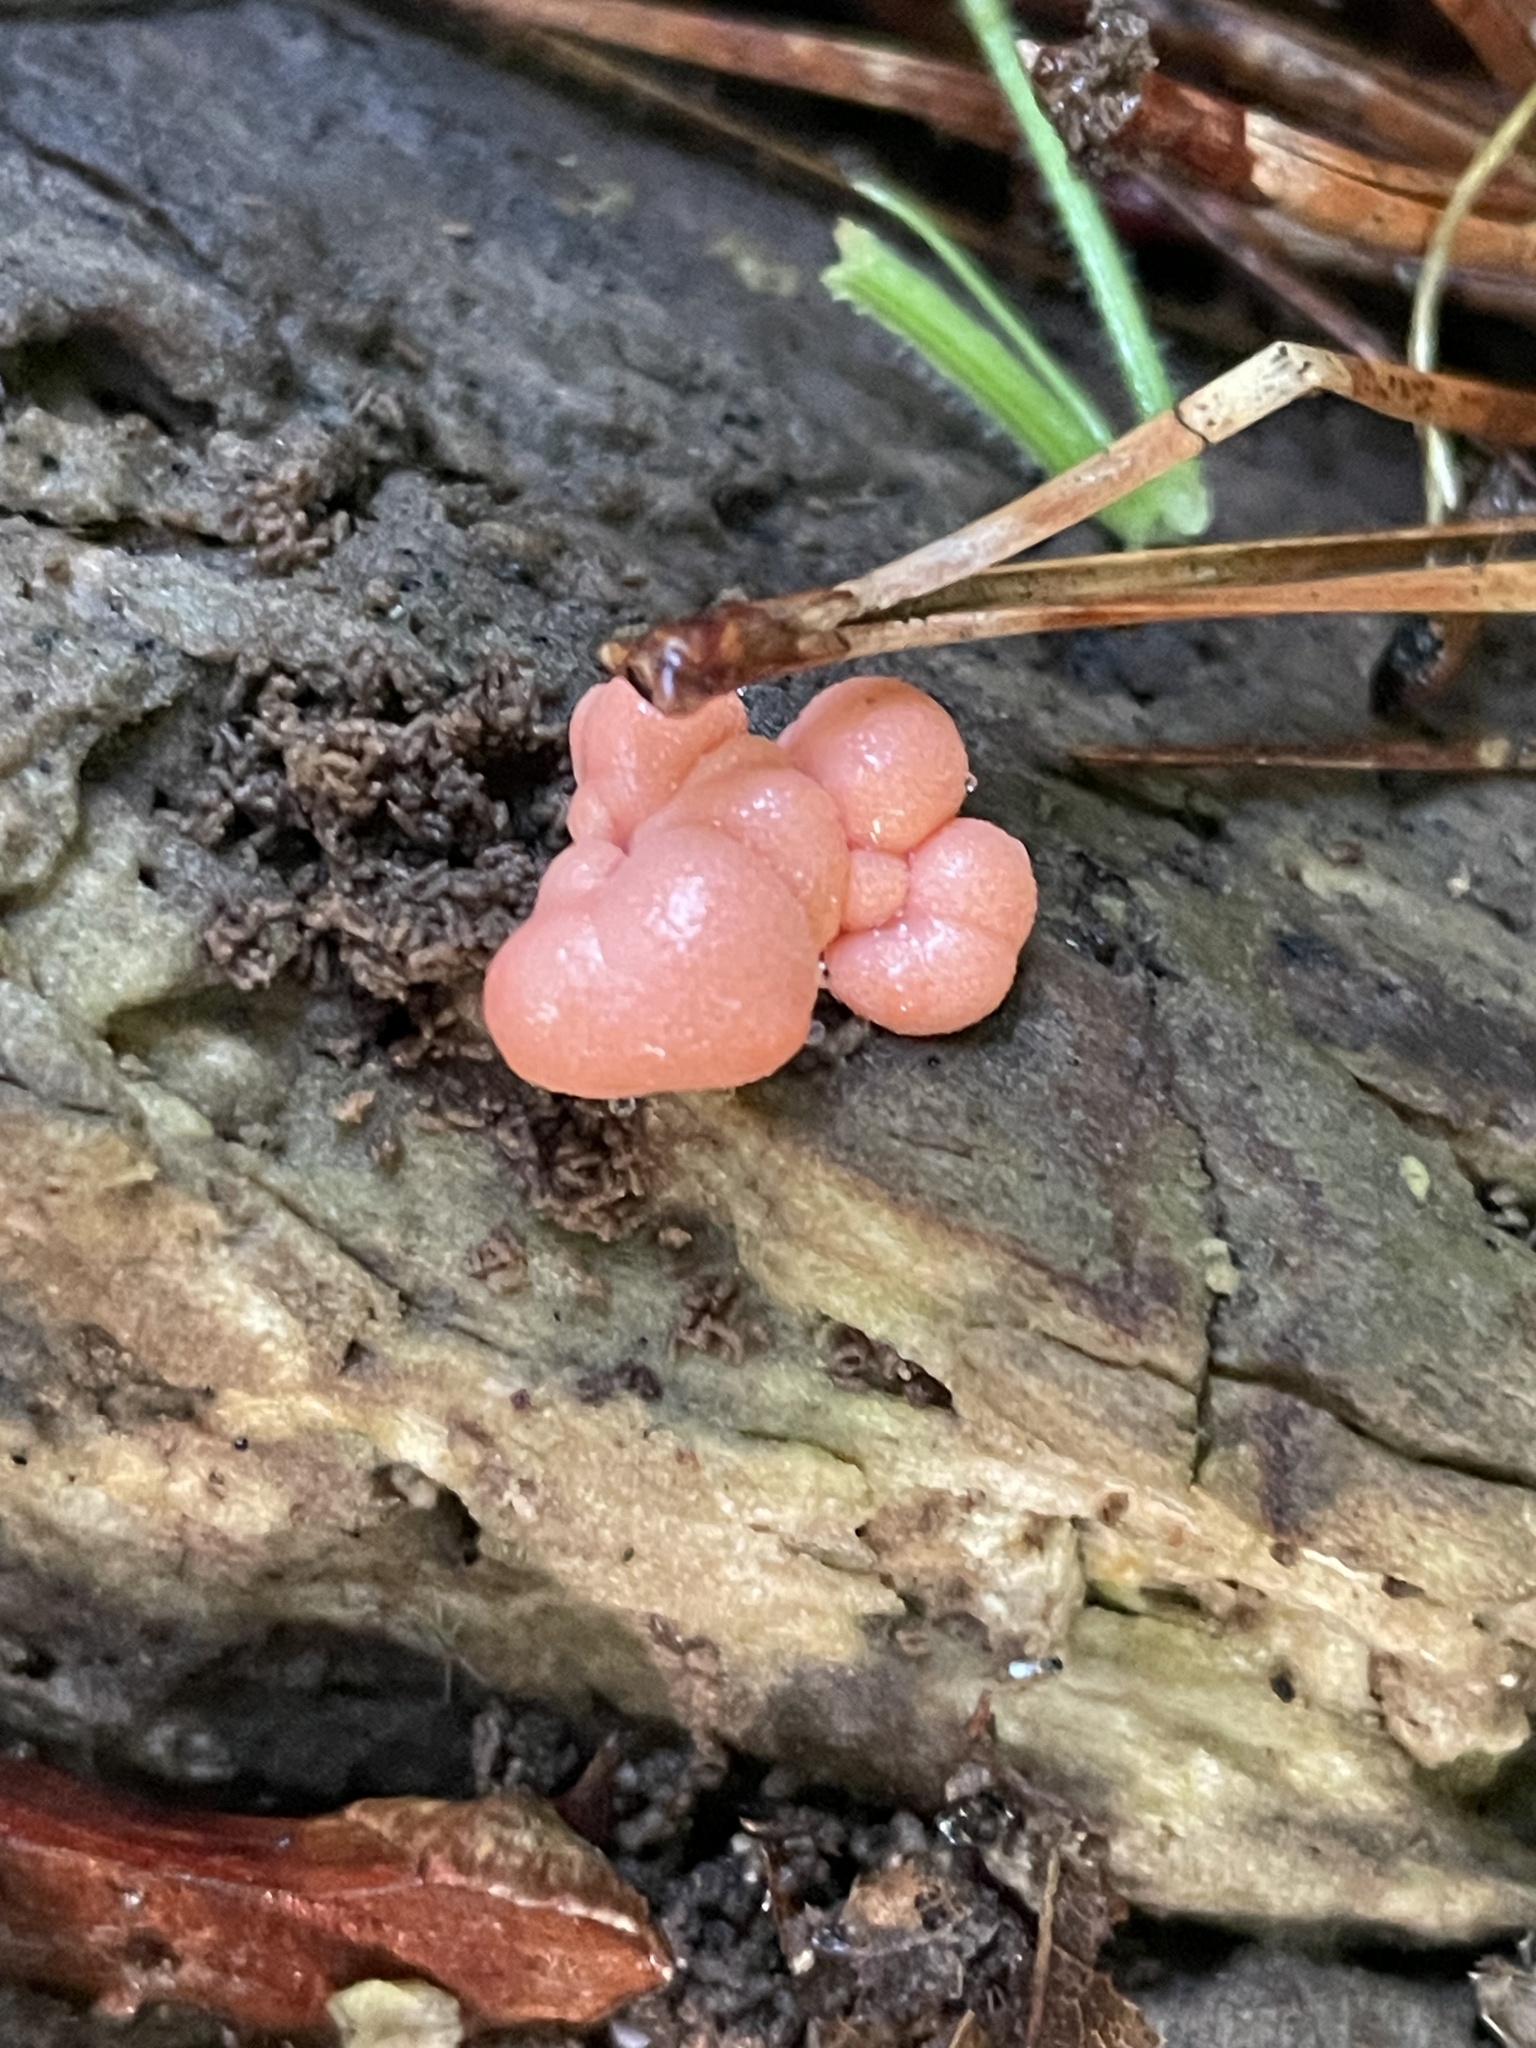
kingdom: Protozoa
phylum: Mycetozoa
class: Myxomycetes
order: Cribrariales
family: Tubiferaceae
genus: Lycogala
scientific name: Lycogala epidendrum
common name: Wolf's milk
